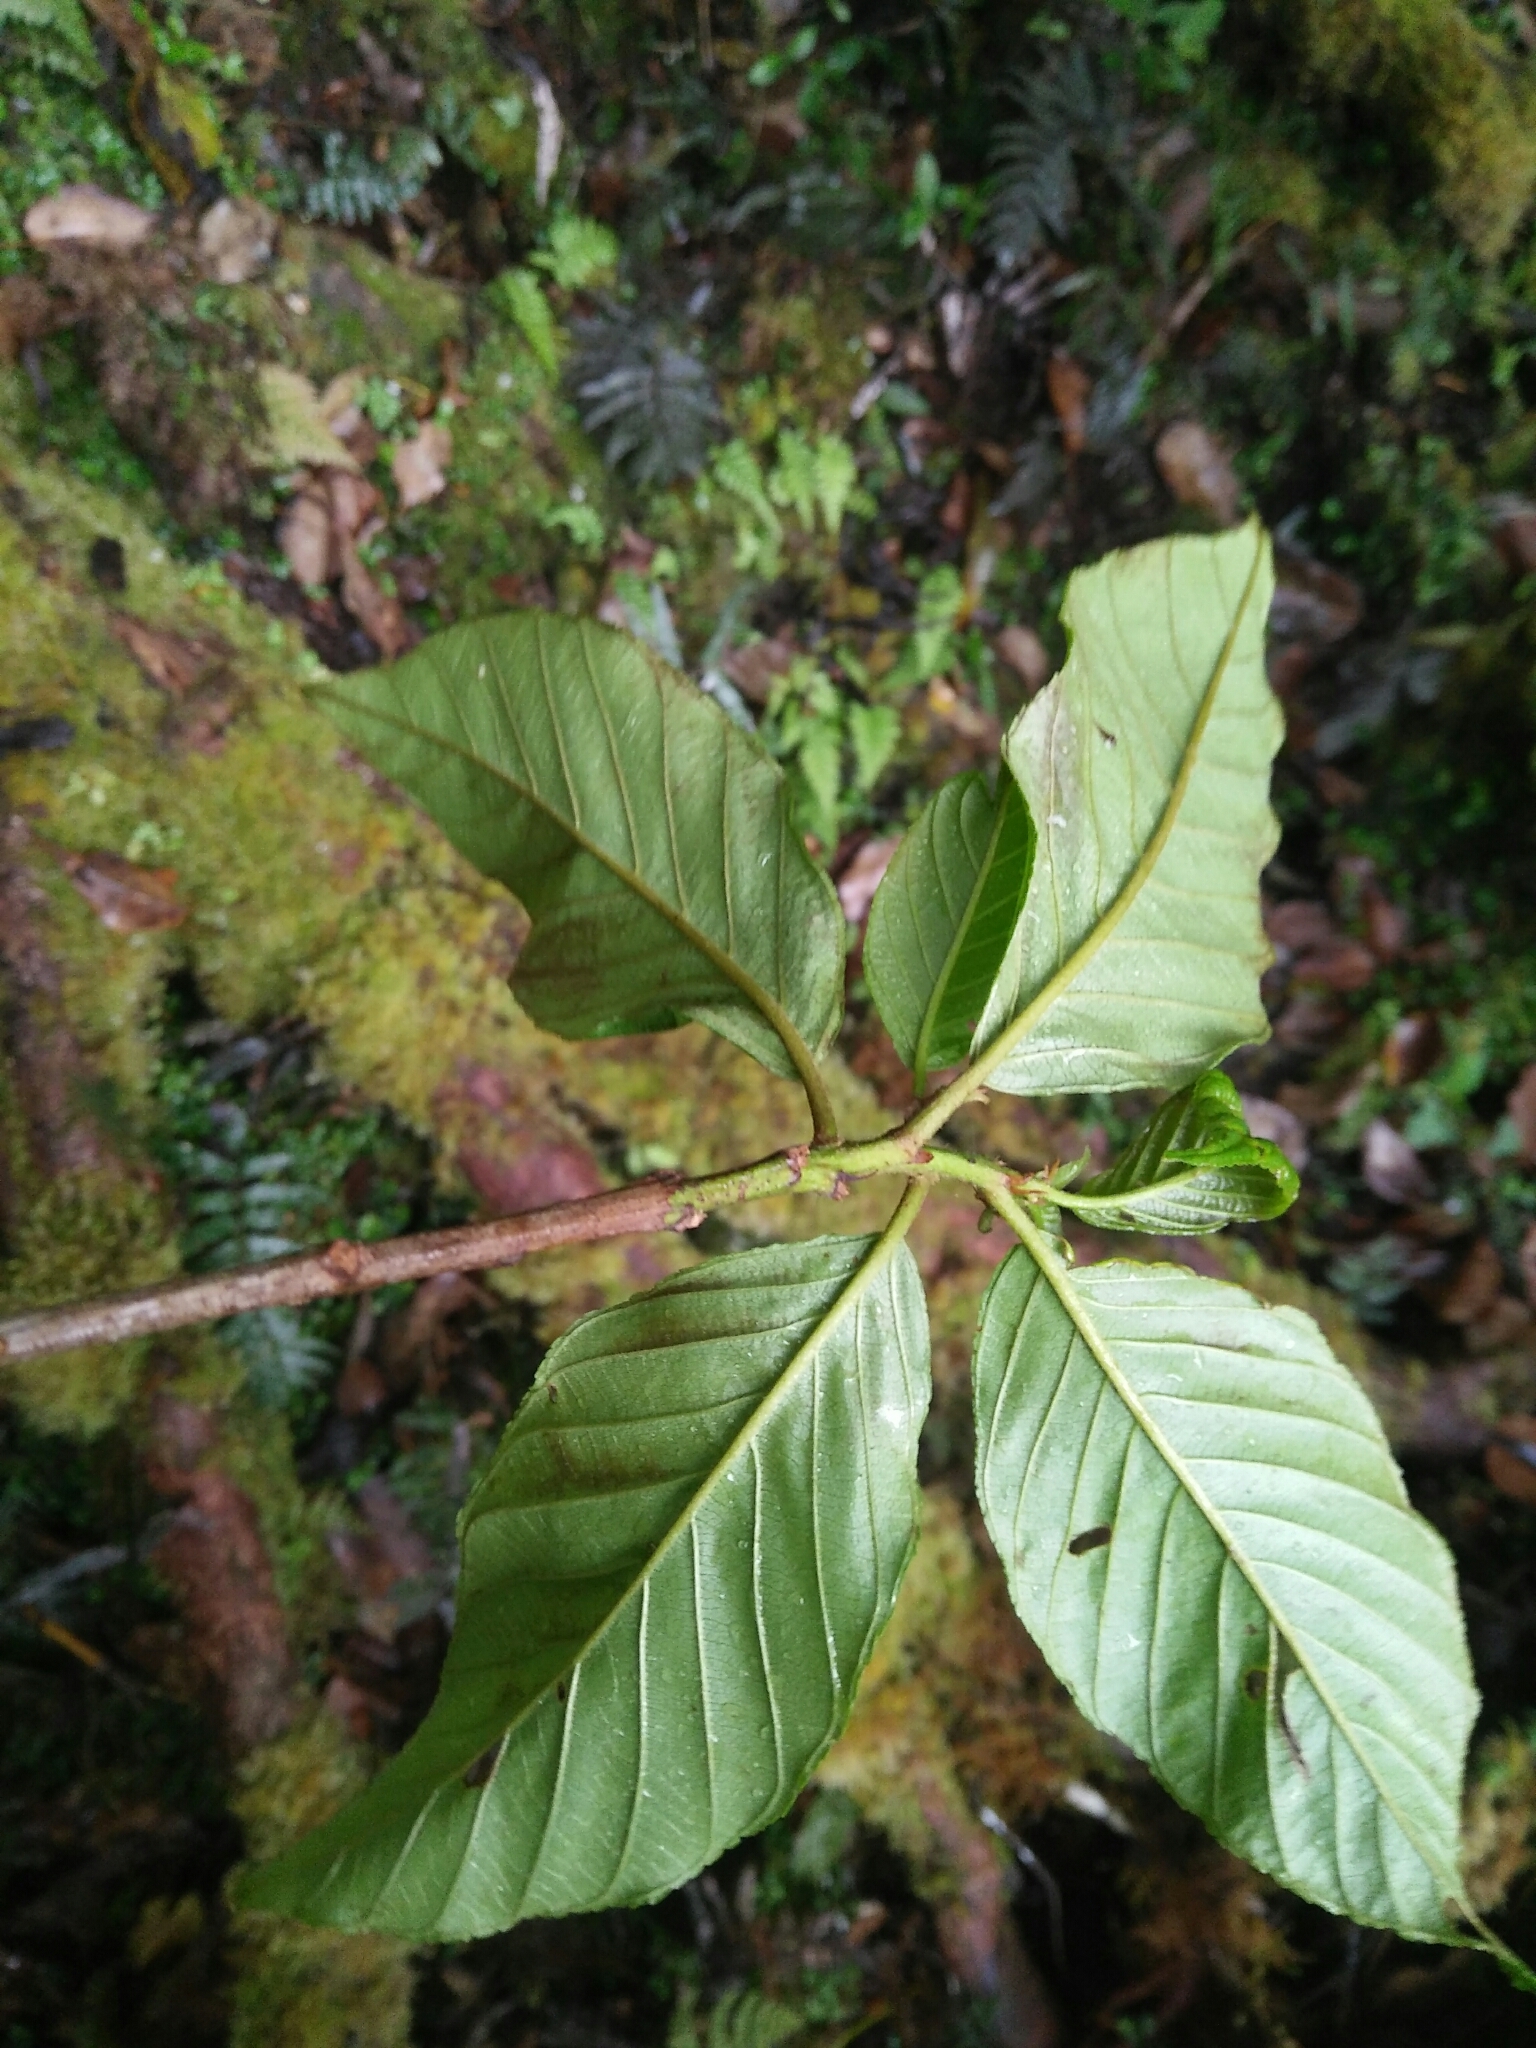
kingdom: Plantae
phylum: Tracheophyta
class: Magnoliopsida
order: Rosales
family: Rhamnaceae
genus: Frangula
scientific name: Frangula crenata
